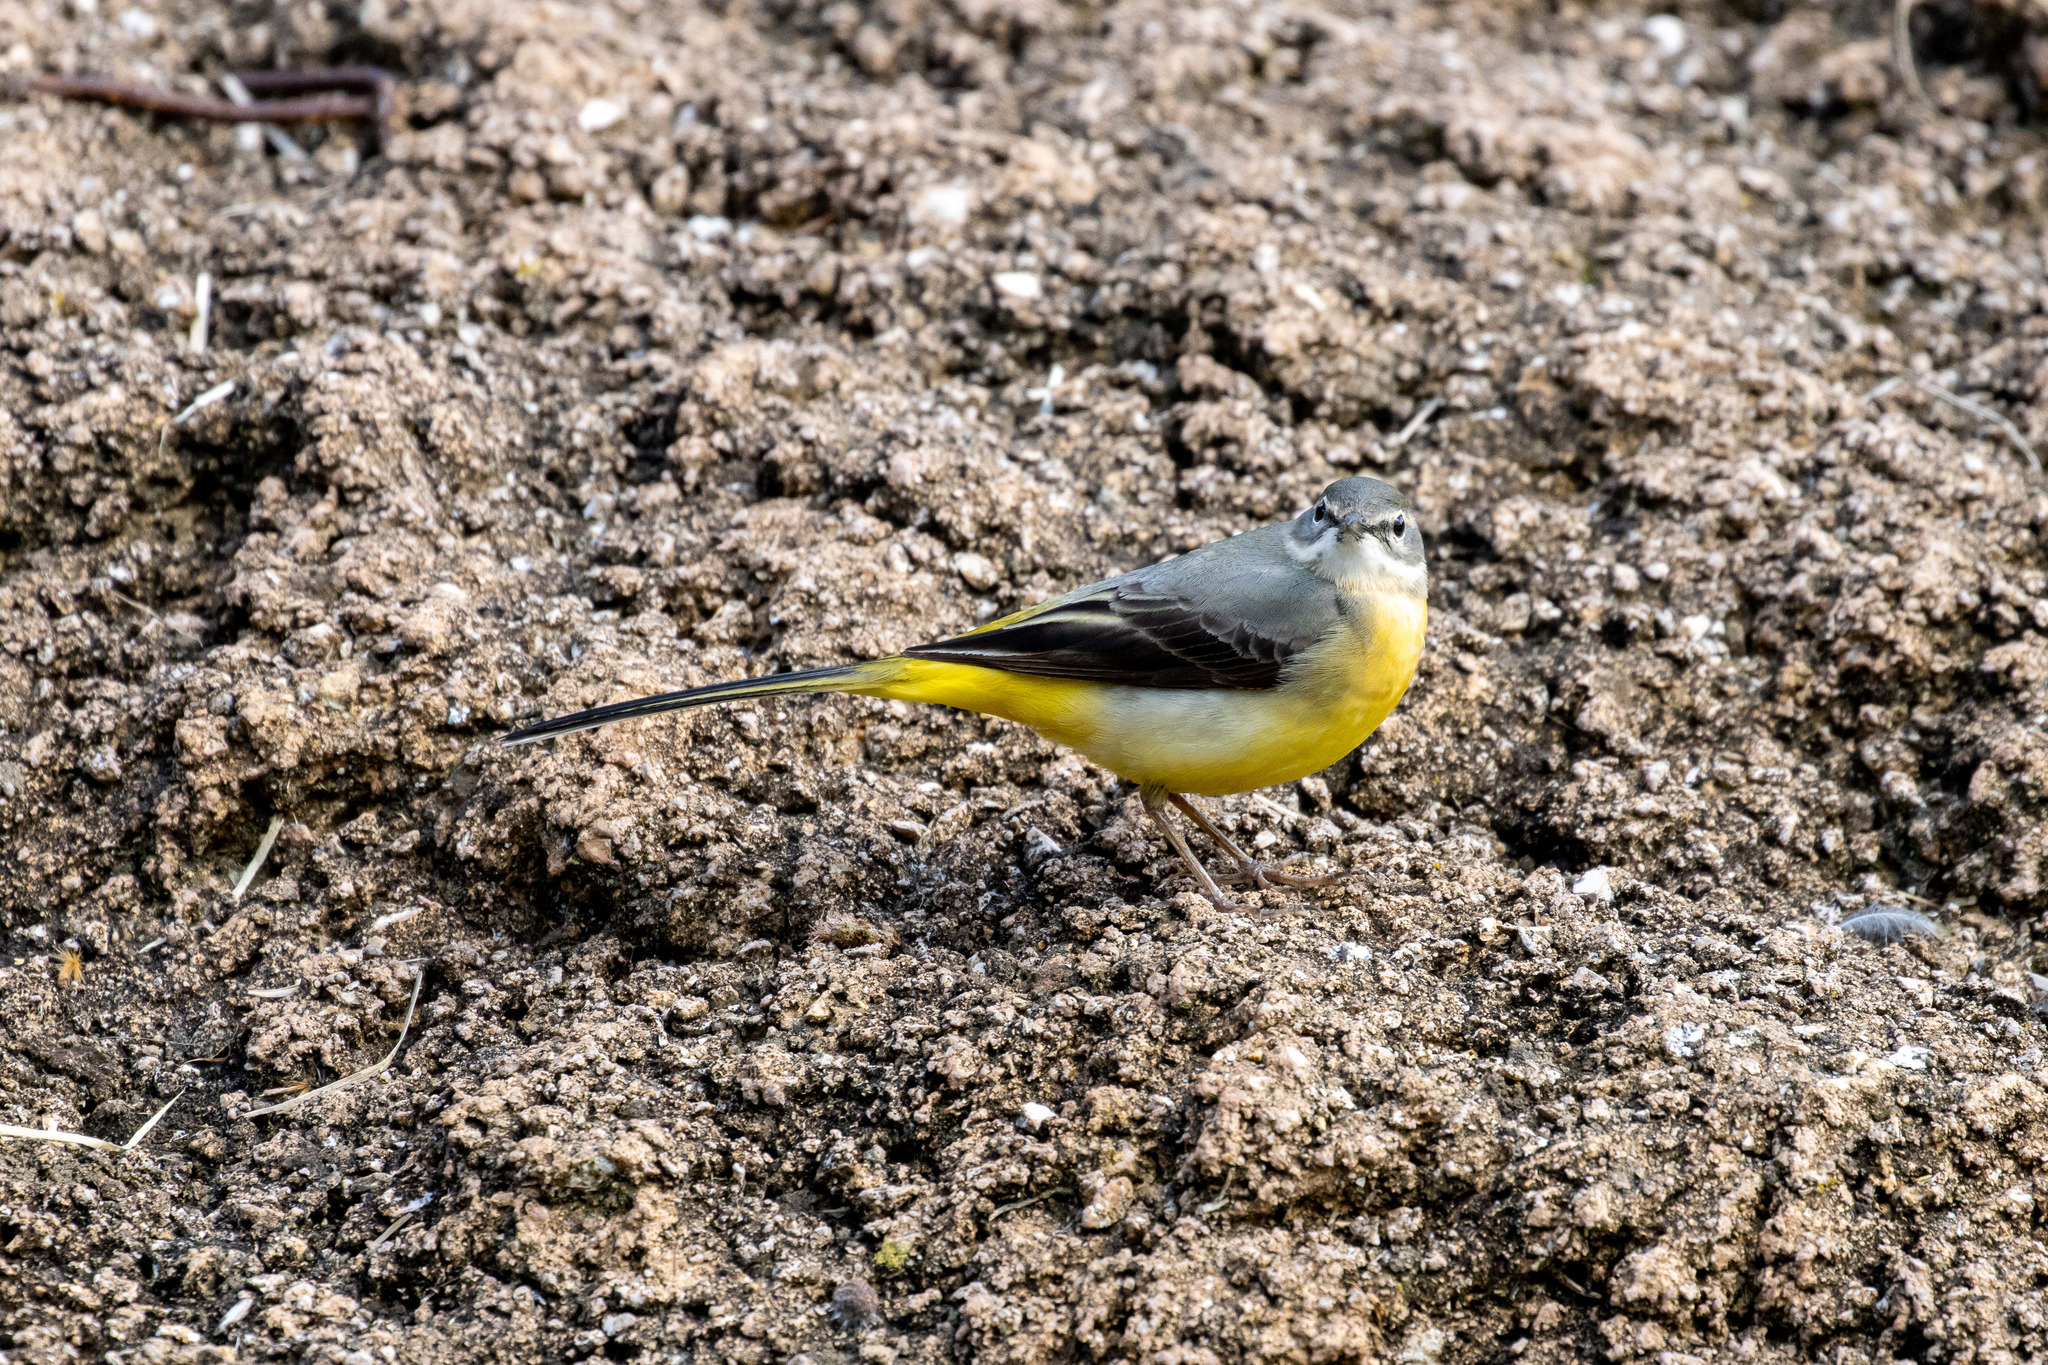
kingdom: Animalia
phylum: Chordata
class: Aves
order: Passeriformes
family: Motacillidae
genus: Motacilla
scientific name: Motacilla cinerea
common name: Grey wagtail
